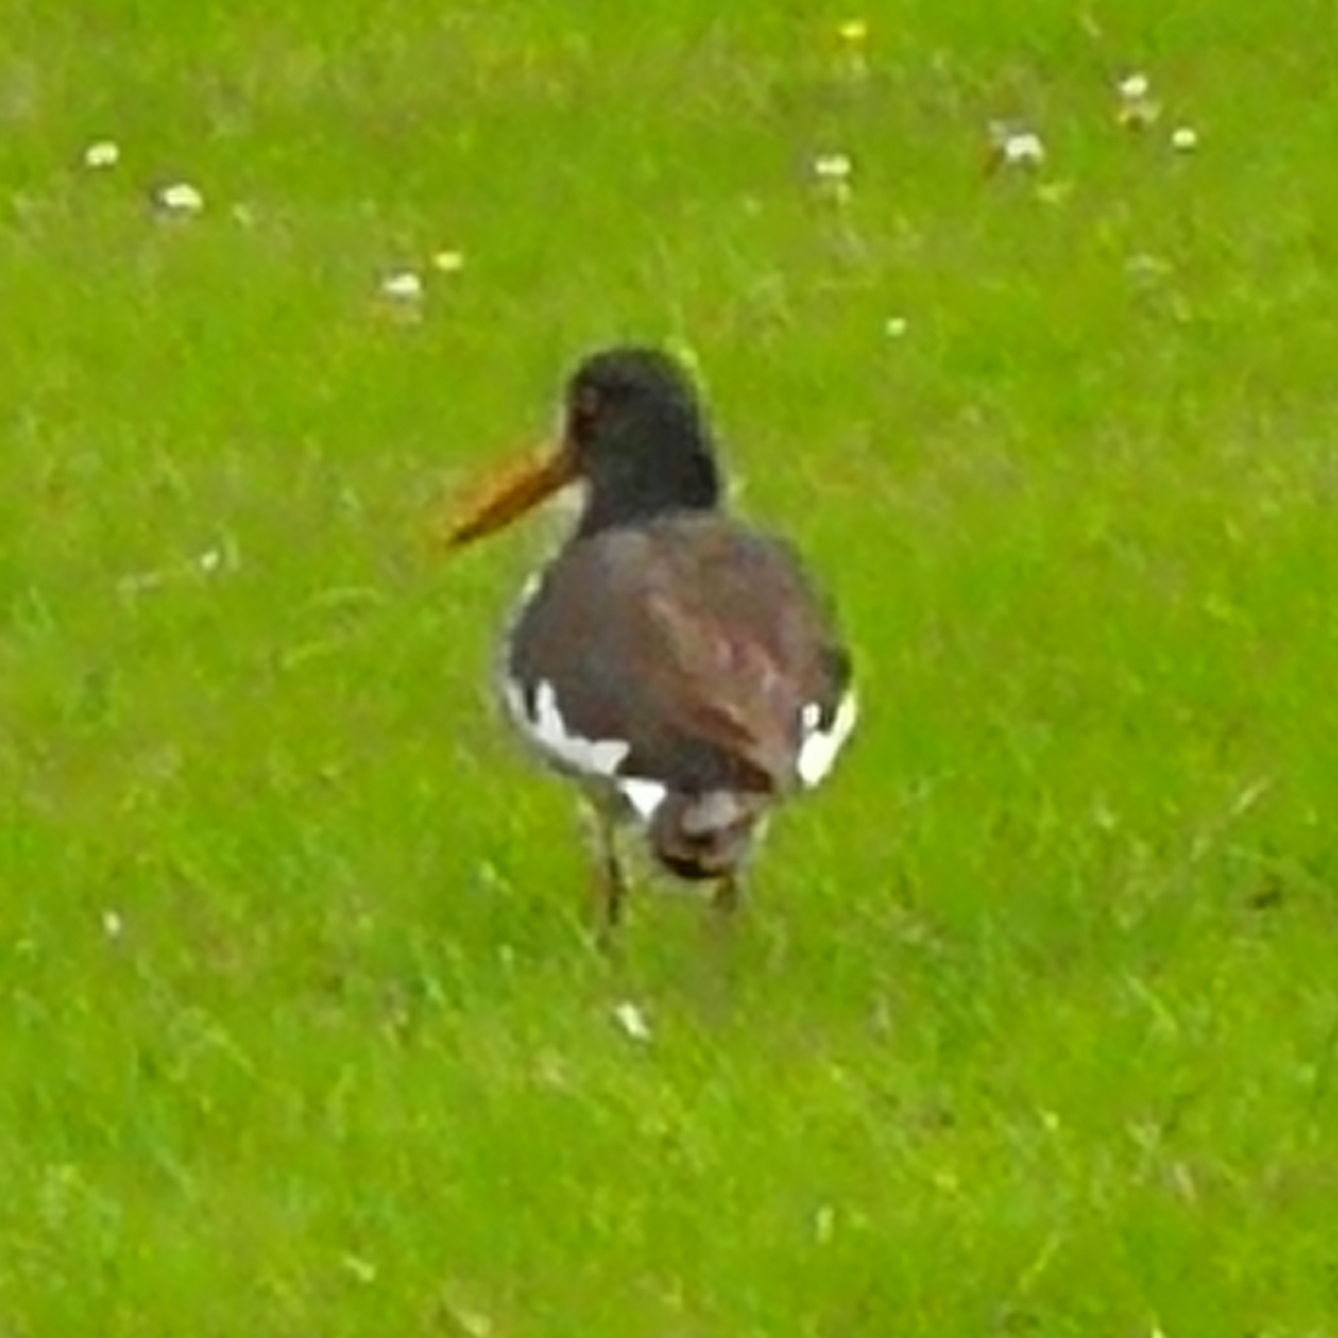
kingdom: Animalia
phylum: Chordata
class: Aves
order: Charadriiformes
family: Haematopodidae
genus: Haematopus
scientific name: Haematopus ostralegus
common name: Eurasian oystercatcher
